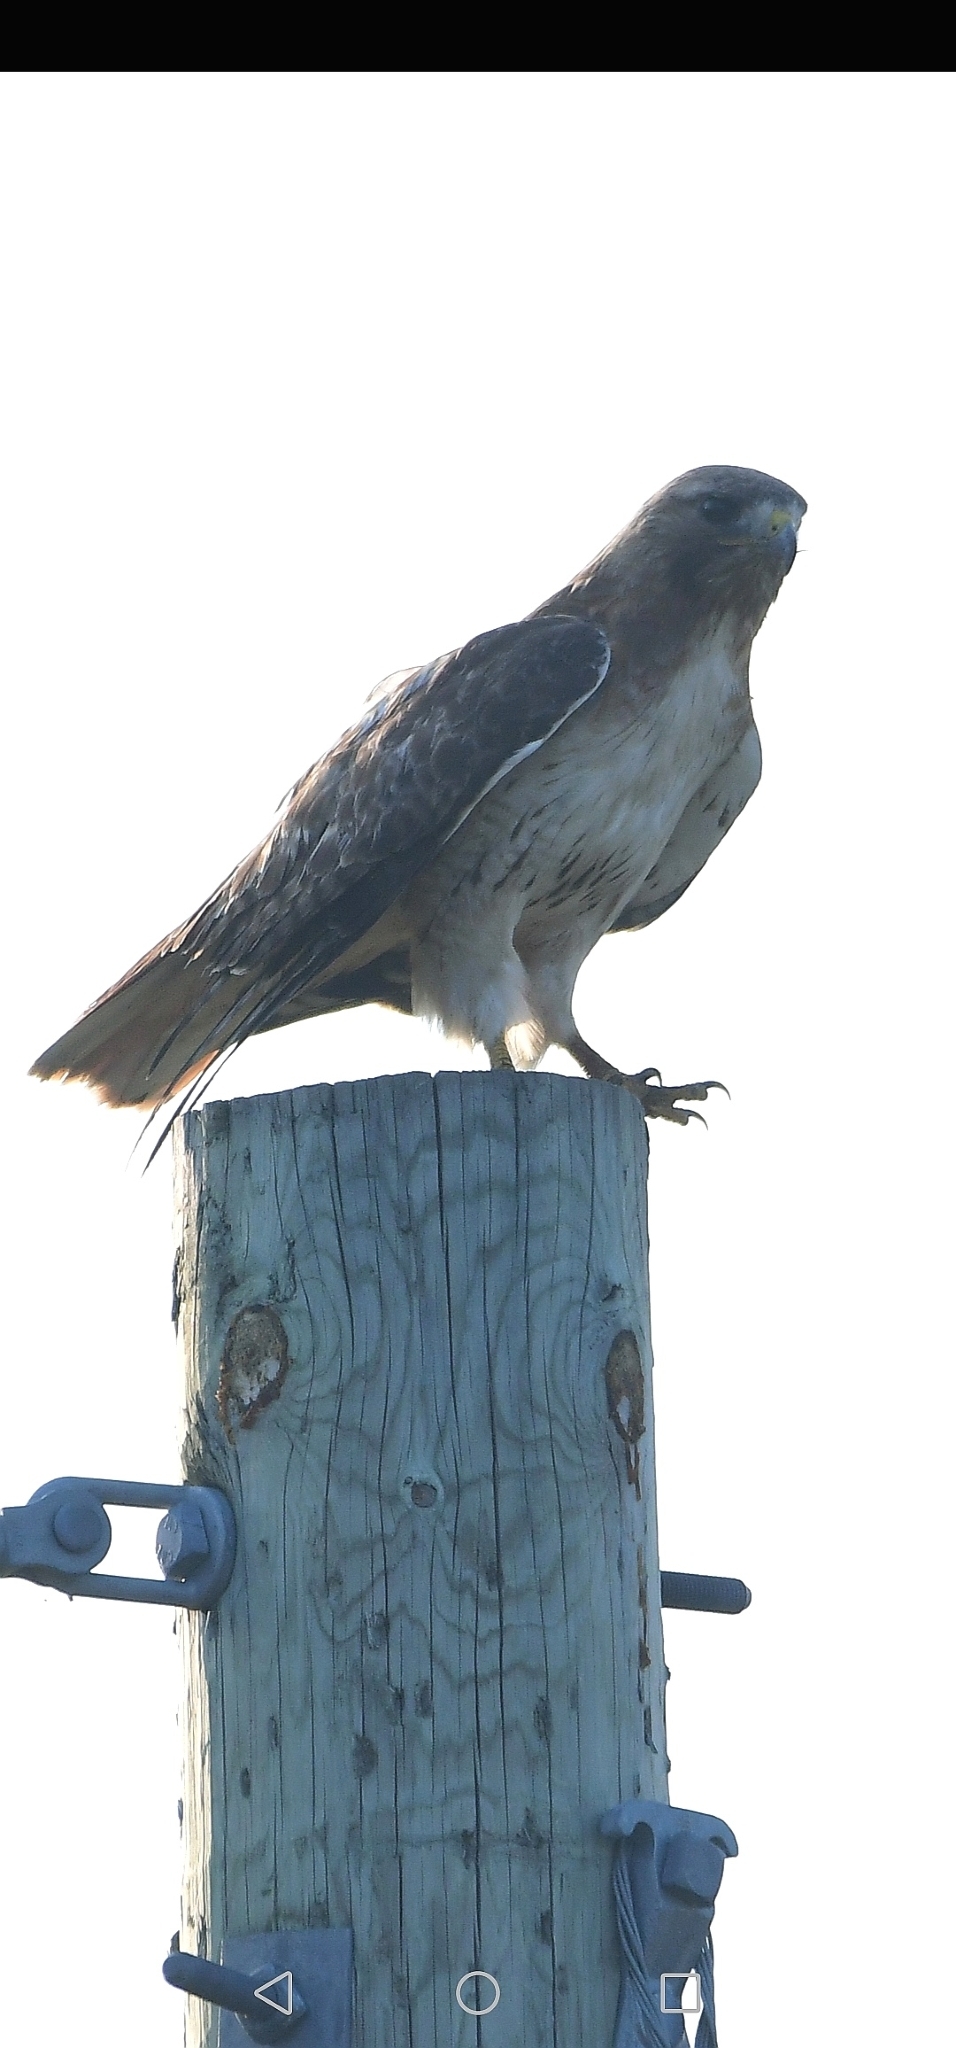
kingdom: Animalia
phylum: Chordata
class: Aves
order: Accipitriformes
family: Accipitridae
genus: Buteo
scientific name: Buteo jamaicensis
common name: Red-tailed hawk
